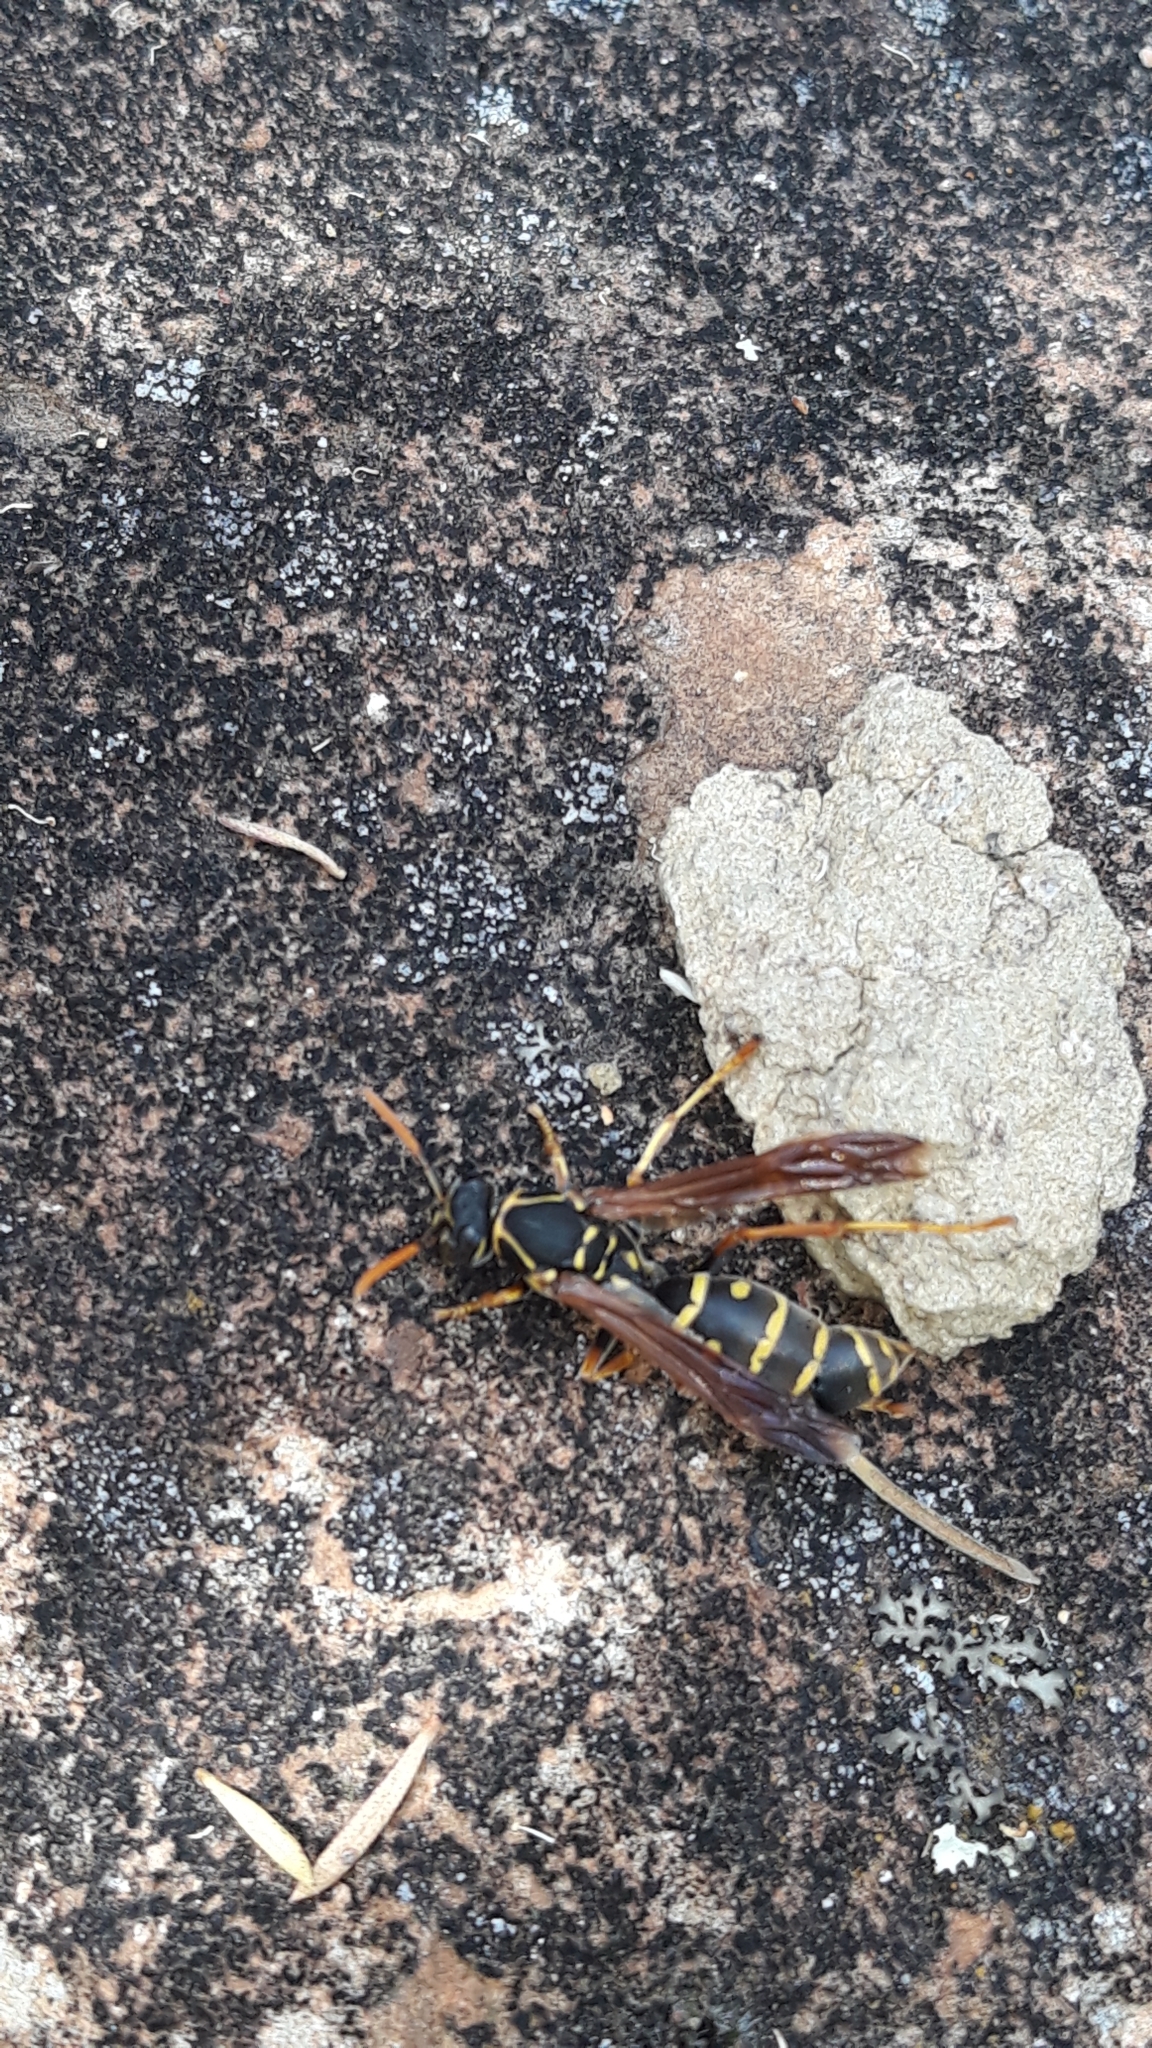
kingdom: Animalia
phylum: Arthropoda
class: Insecta
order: Hymenoptera
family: Eumenidae
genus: Polistes
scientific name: Polistes chinensis
